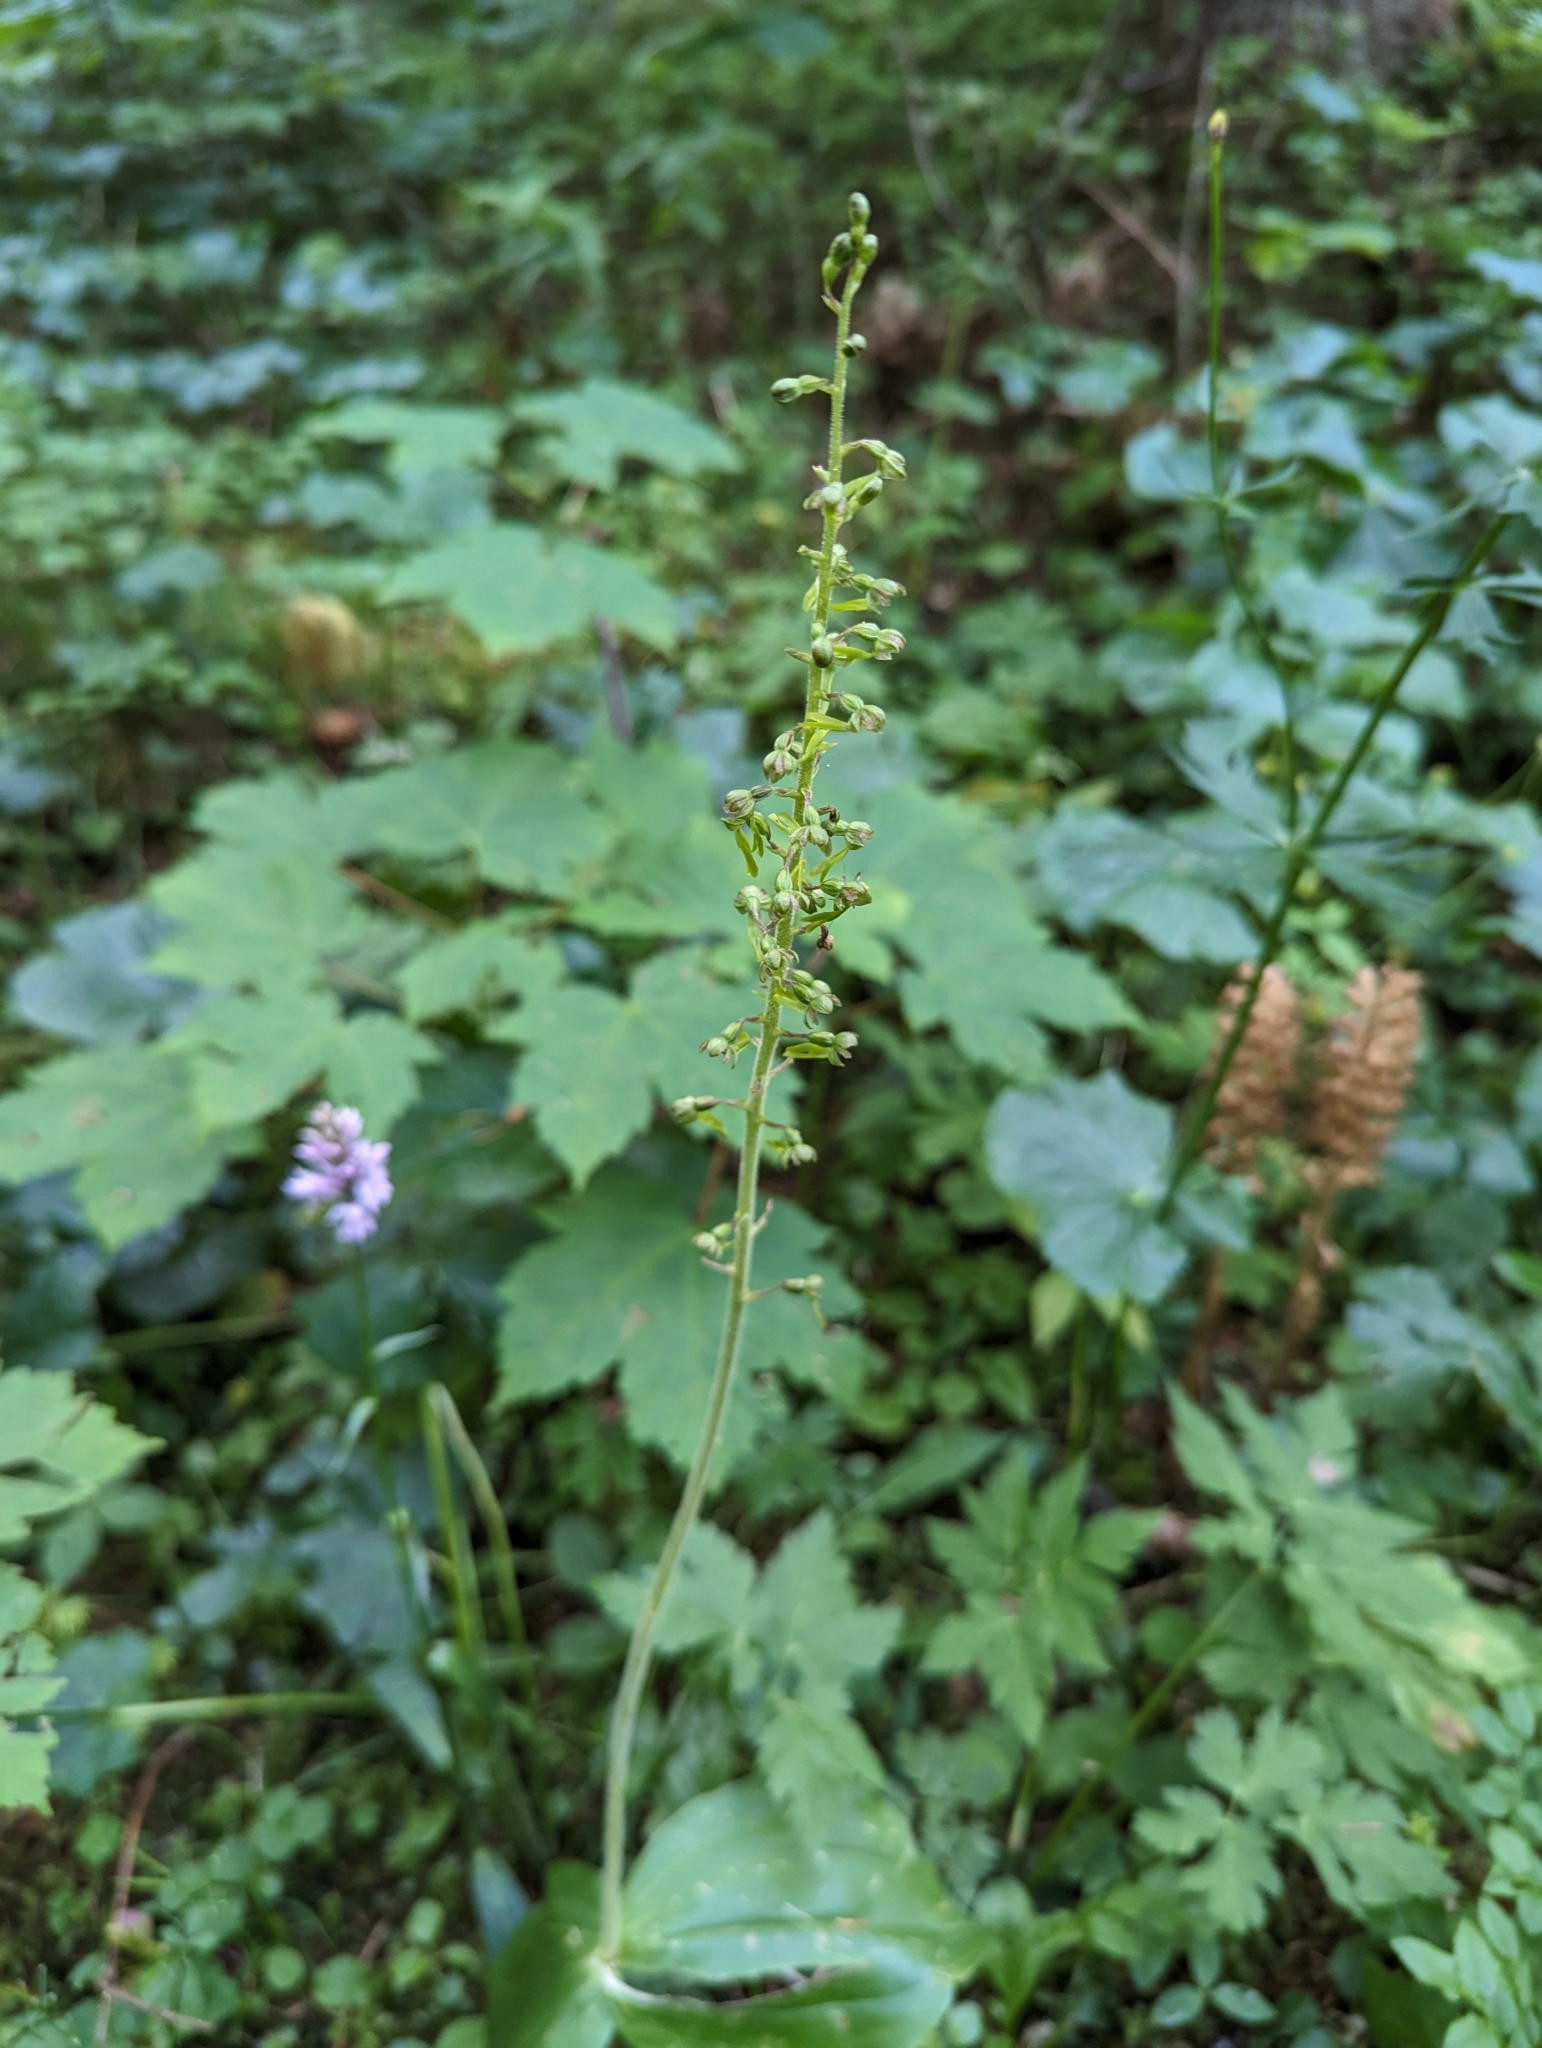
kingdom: Plantae
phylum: Tracheophyta
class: Liliopsida
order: Asparagales
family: Orchidaceae
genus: Neottia
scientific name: Neottia ovata
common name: Common twayblade
